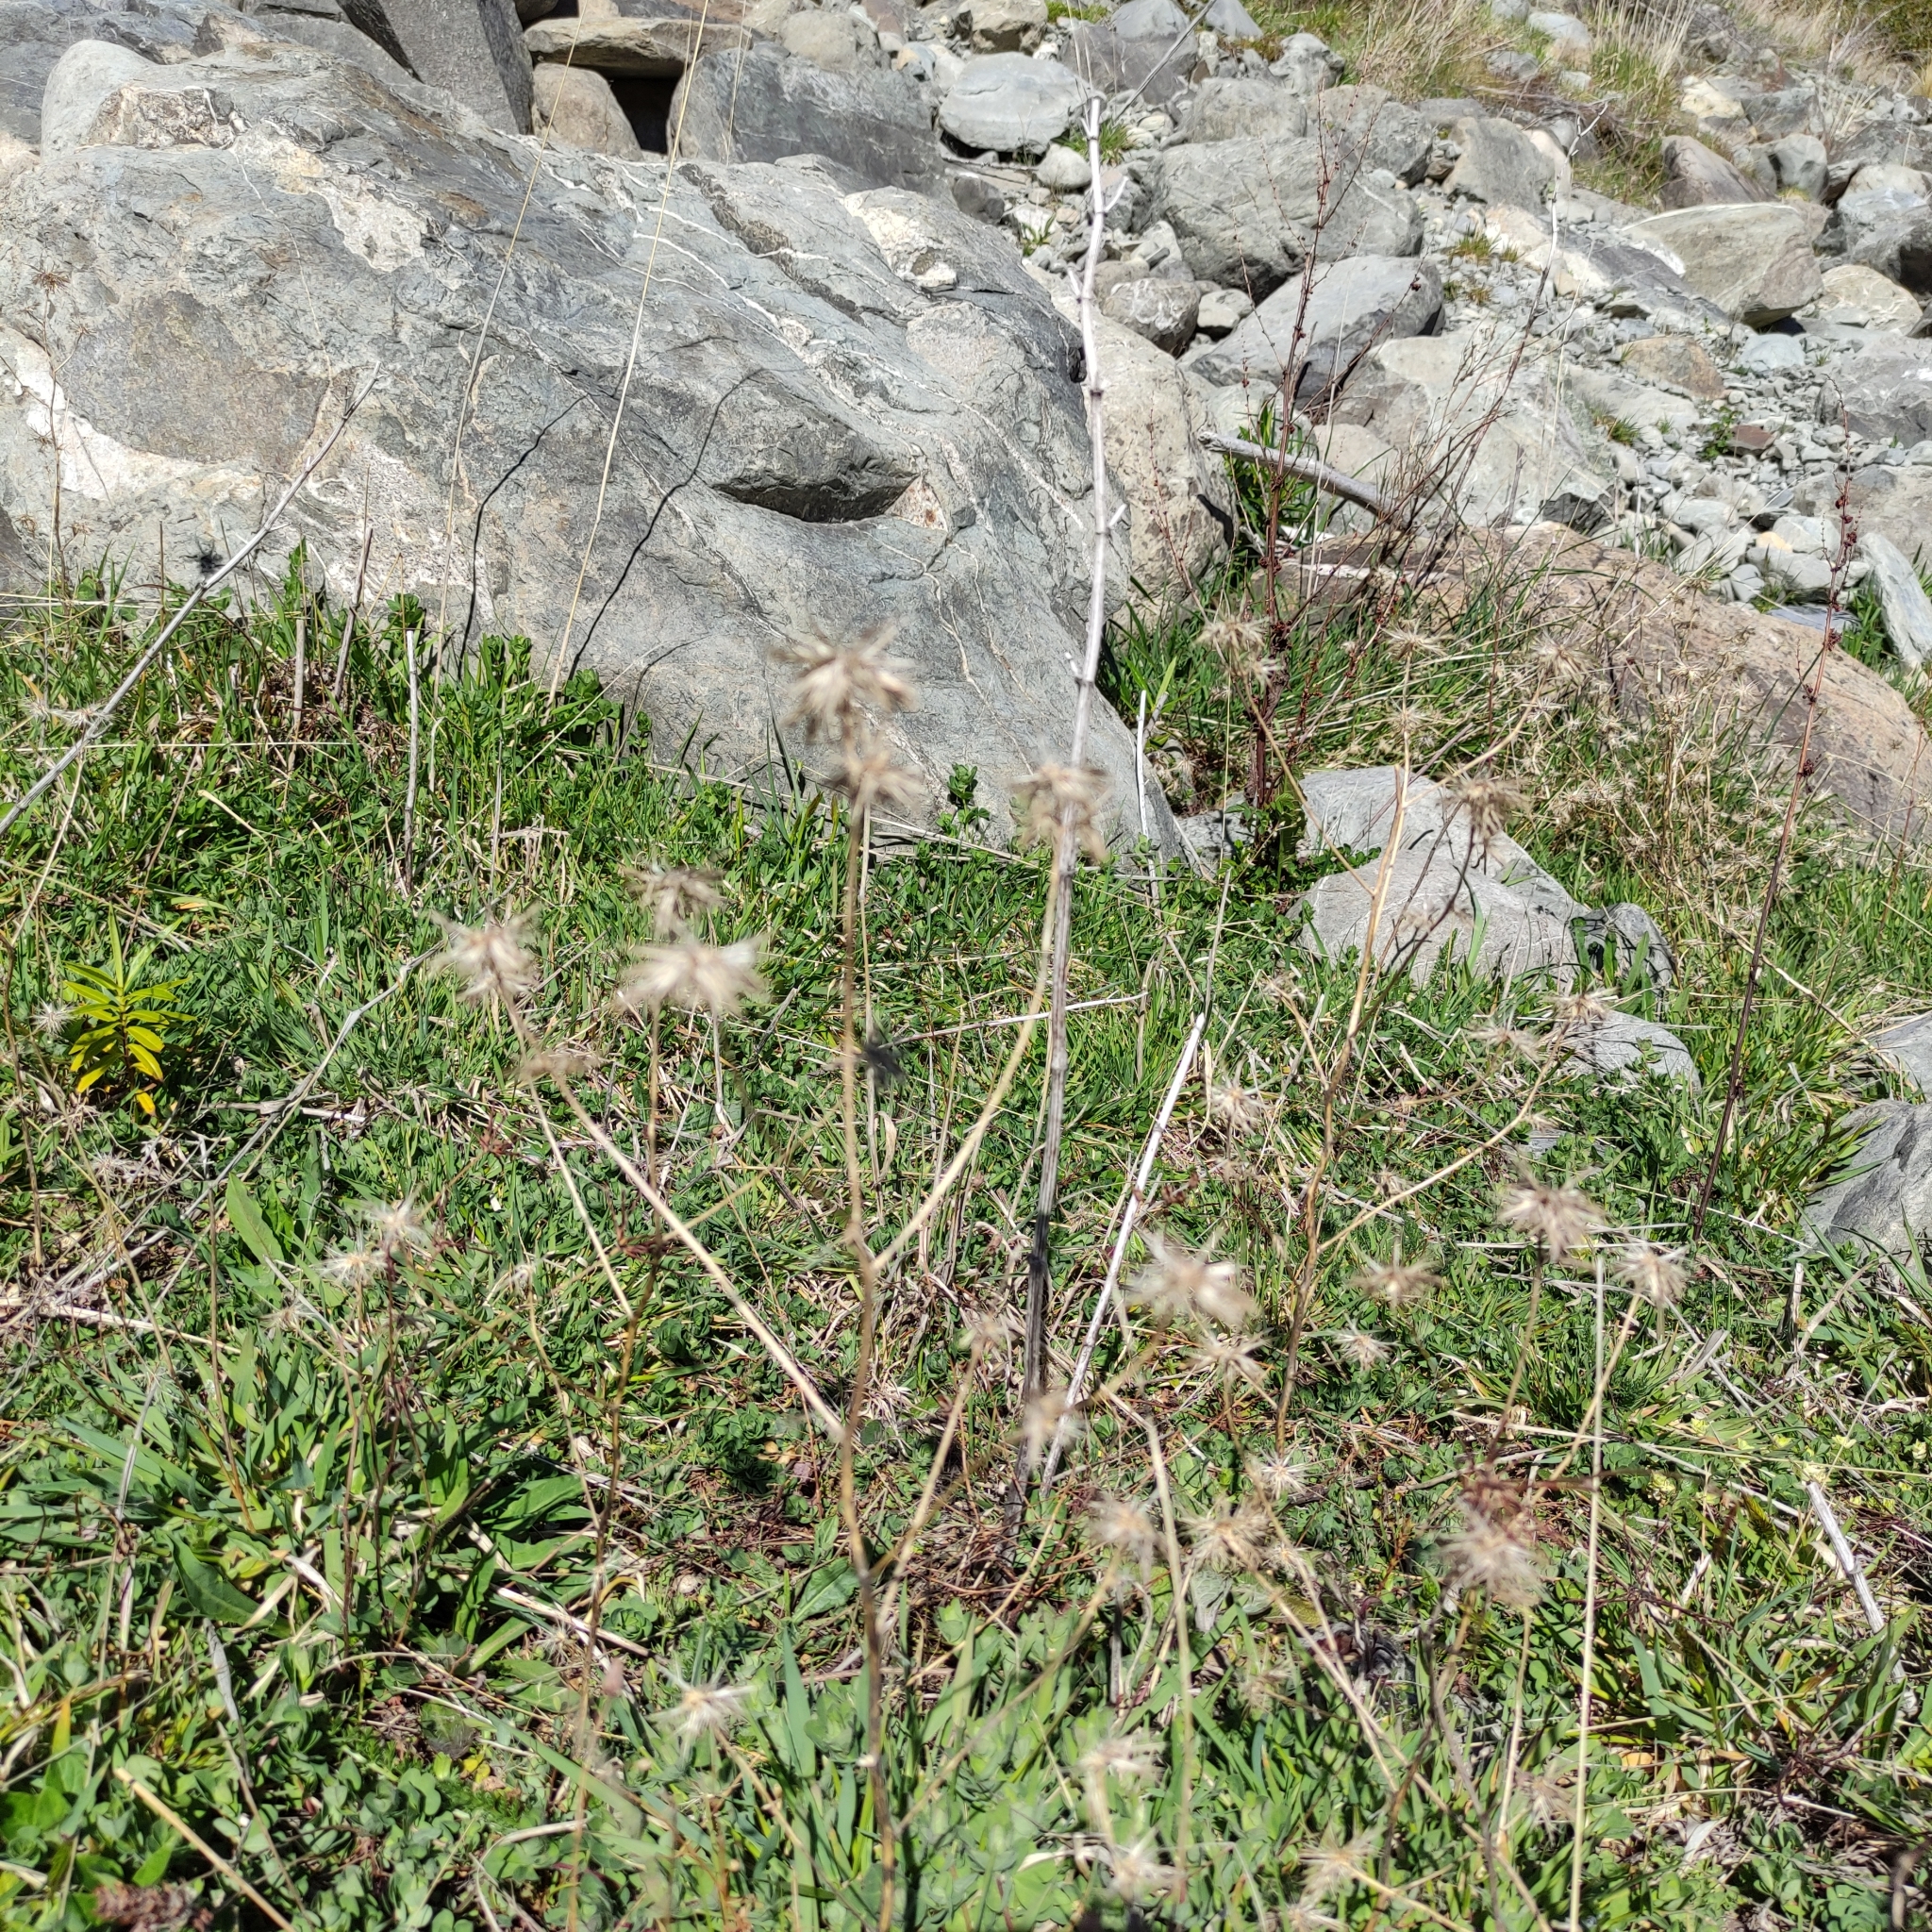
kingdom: Plantae
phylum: Tracheophyta
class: Magnoliopsida
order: Ericales
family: Polemoniaceae
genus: Navarretia
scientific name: Navarretia squarrosa
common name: Skunkweed
